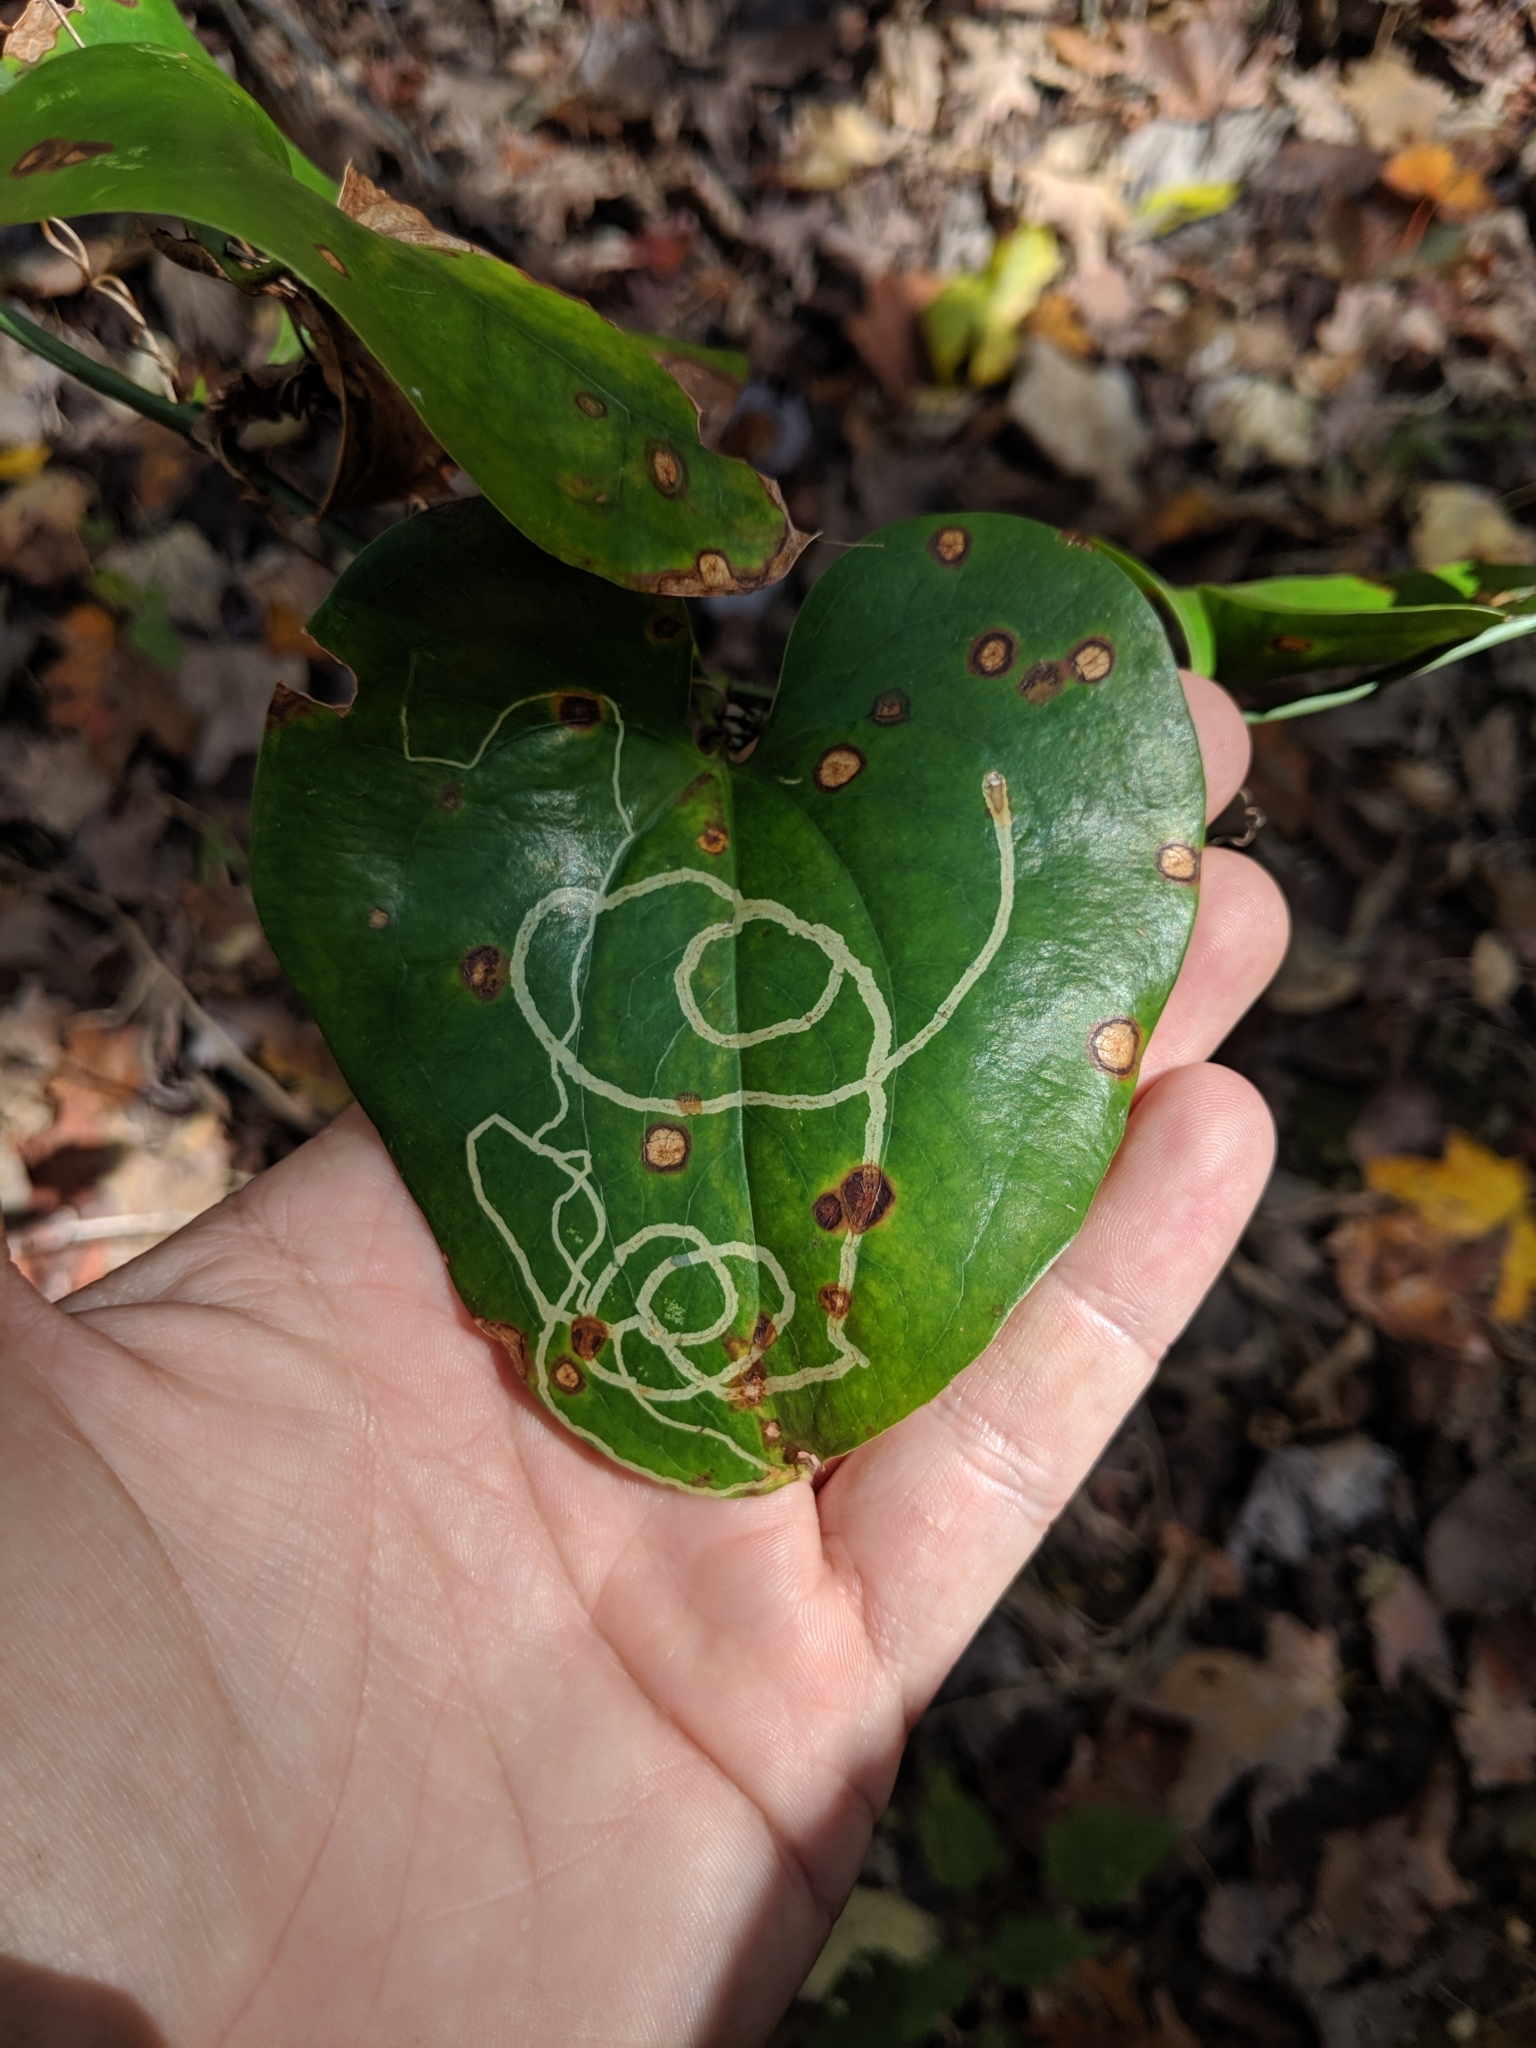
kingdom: Animalia
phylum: Arthropoda
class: Insecta
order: Lepidoptera
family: Gracillariidae
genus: Marmara
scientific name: Marmara smilacisella
